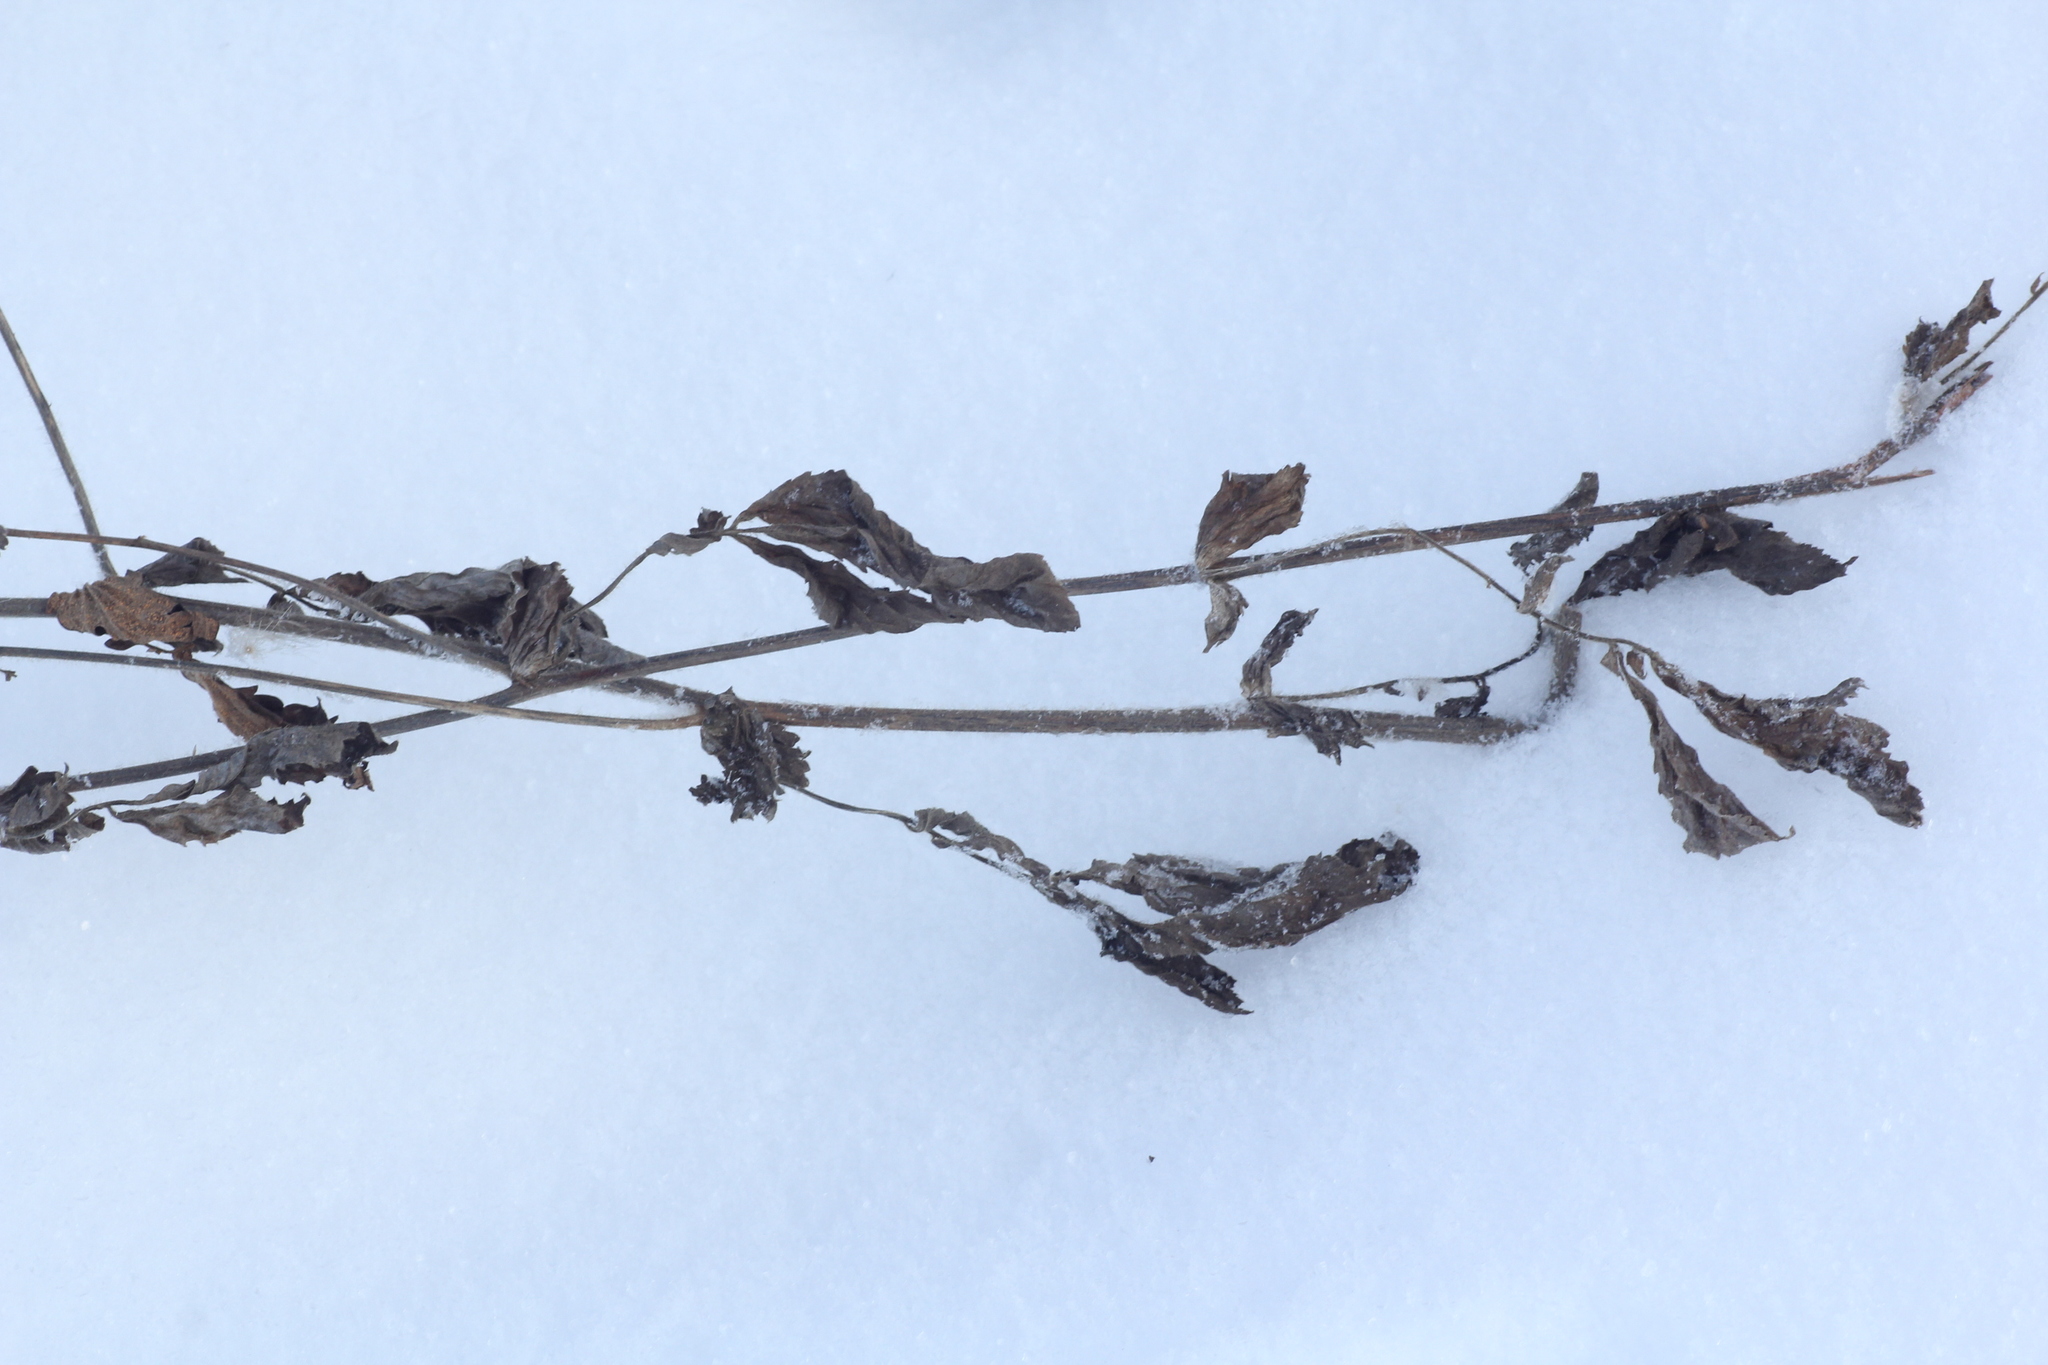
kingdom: Plantae
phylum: Tracheophyta
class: Magnoliopsida
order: Rosales
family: Rosaceae
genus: Geum
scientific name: Geum aleppicum
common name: Yellow avens
